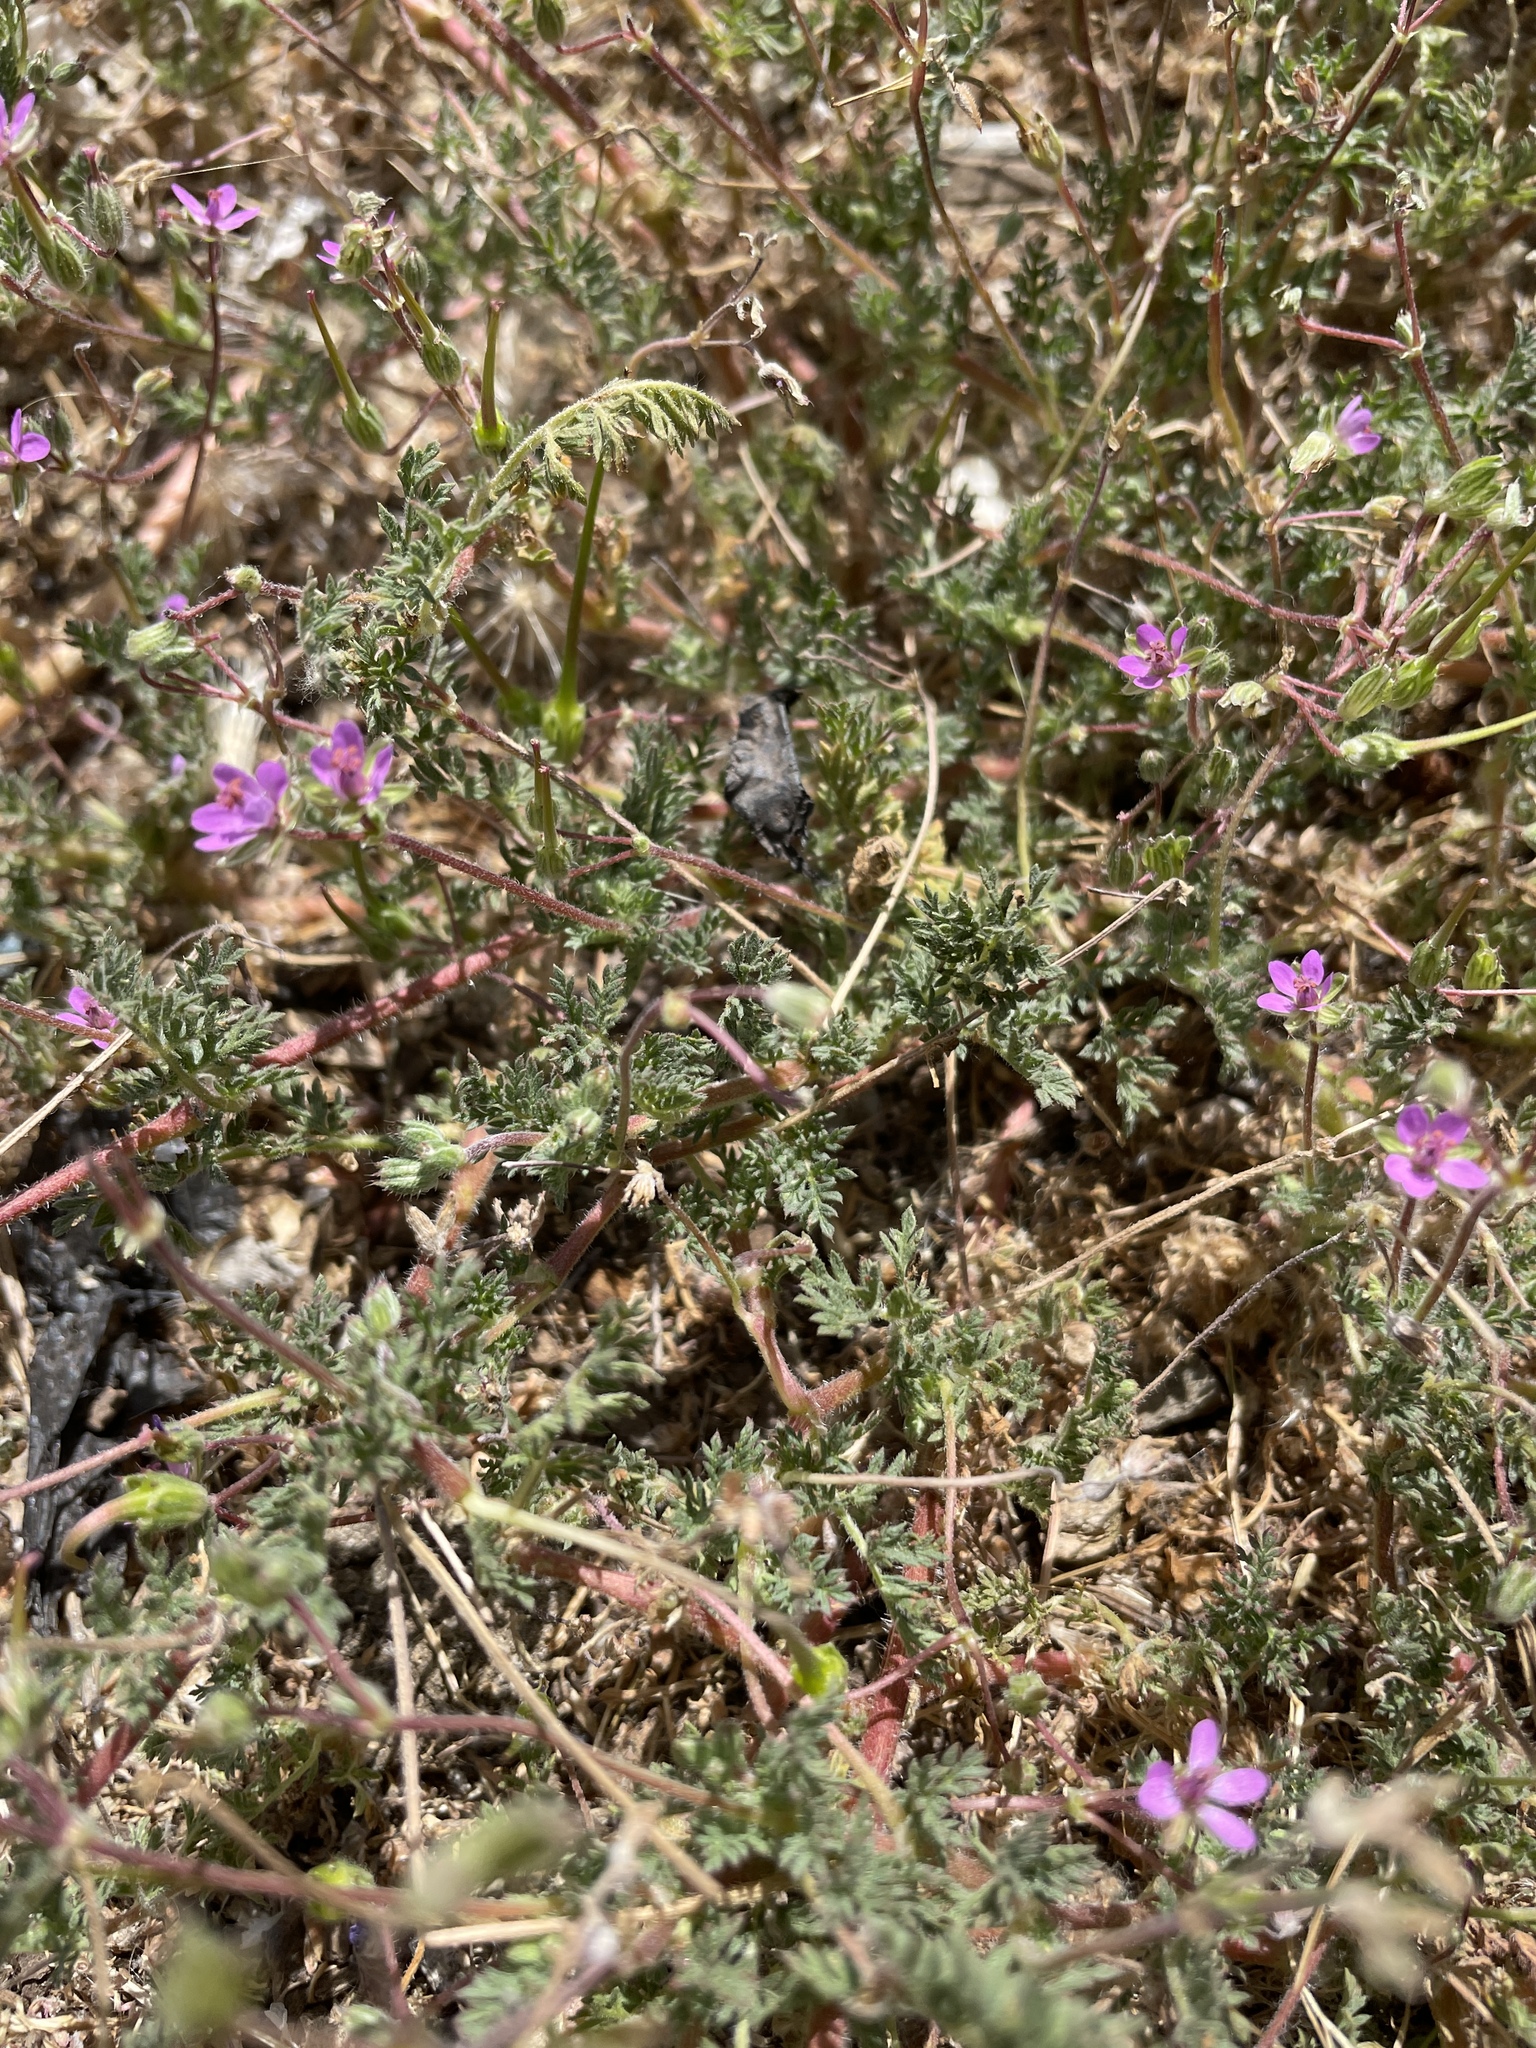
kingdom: Plantae
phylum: Tracheophyta
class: Magnoliopsida
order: Geraniales
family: Geraniaceae
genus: Erodium
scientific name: Erodium cicutarium
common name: Common stork's-bill
